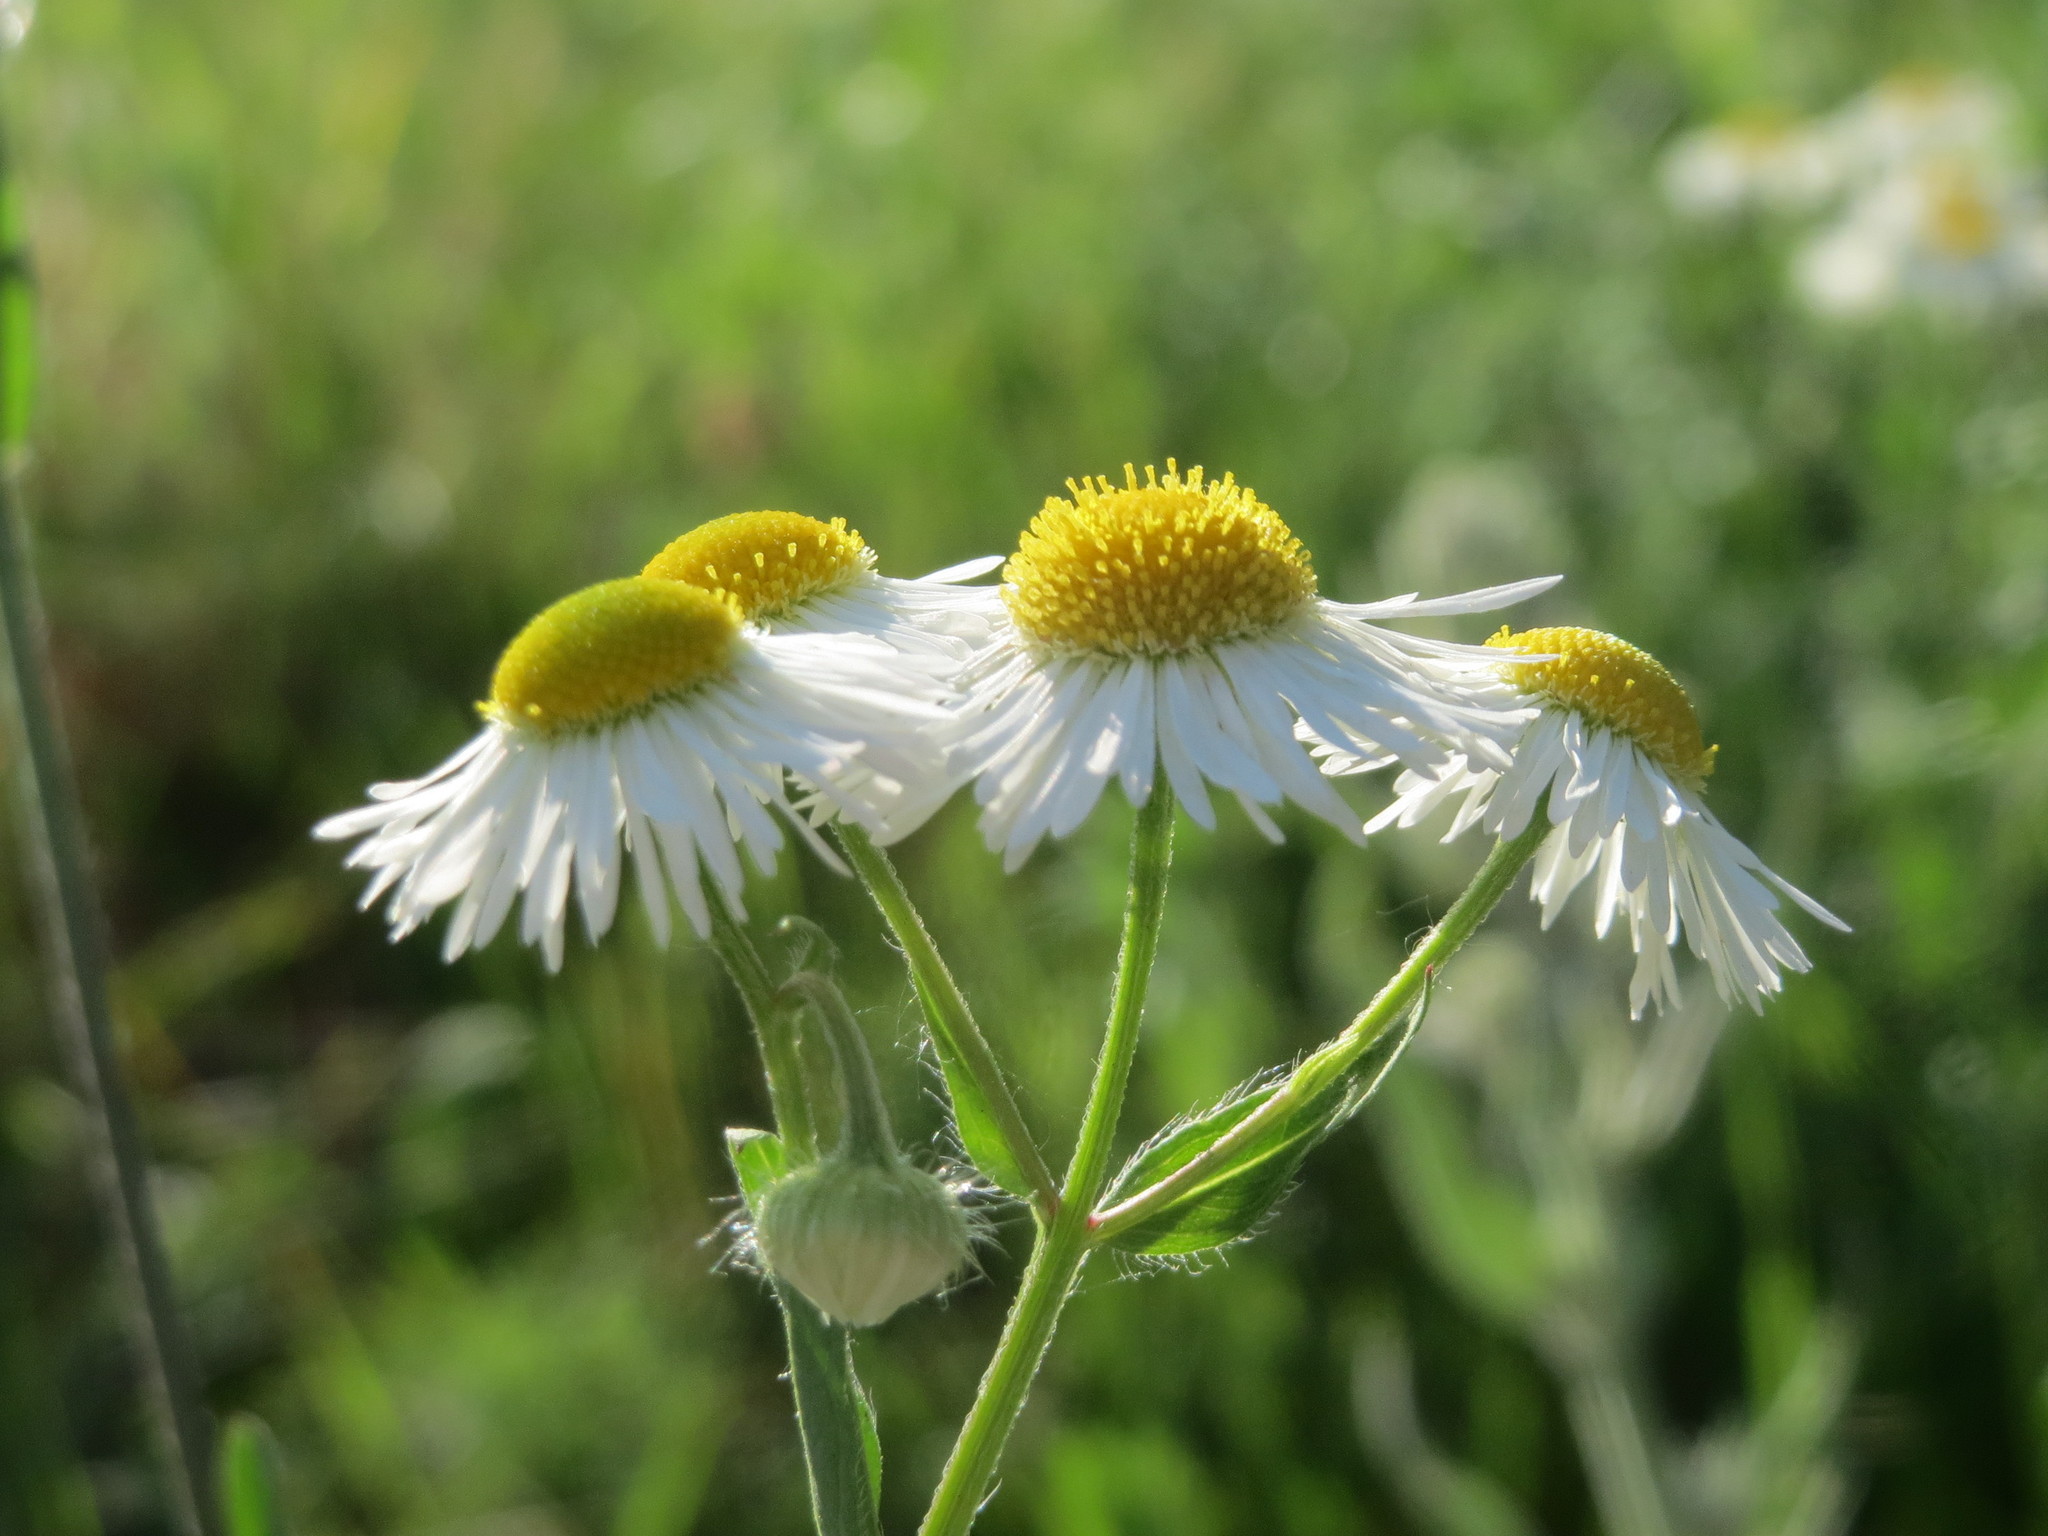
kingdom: Plantae
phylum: Tracheophyta
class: Magnoliopsida
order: Asterales
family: Asteraceae
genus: Erigeron
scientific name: Erigeron annuus
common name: Tall fleabane
